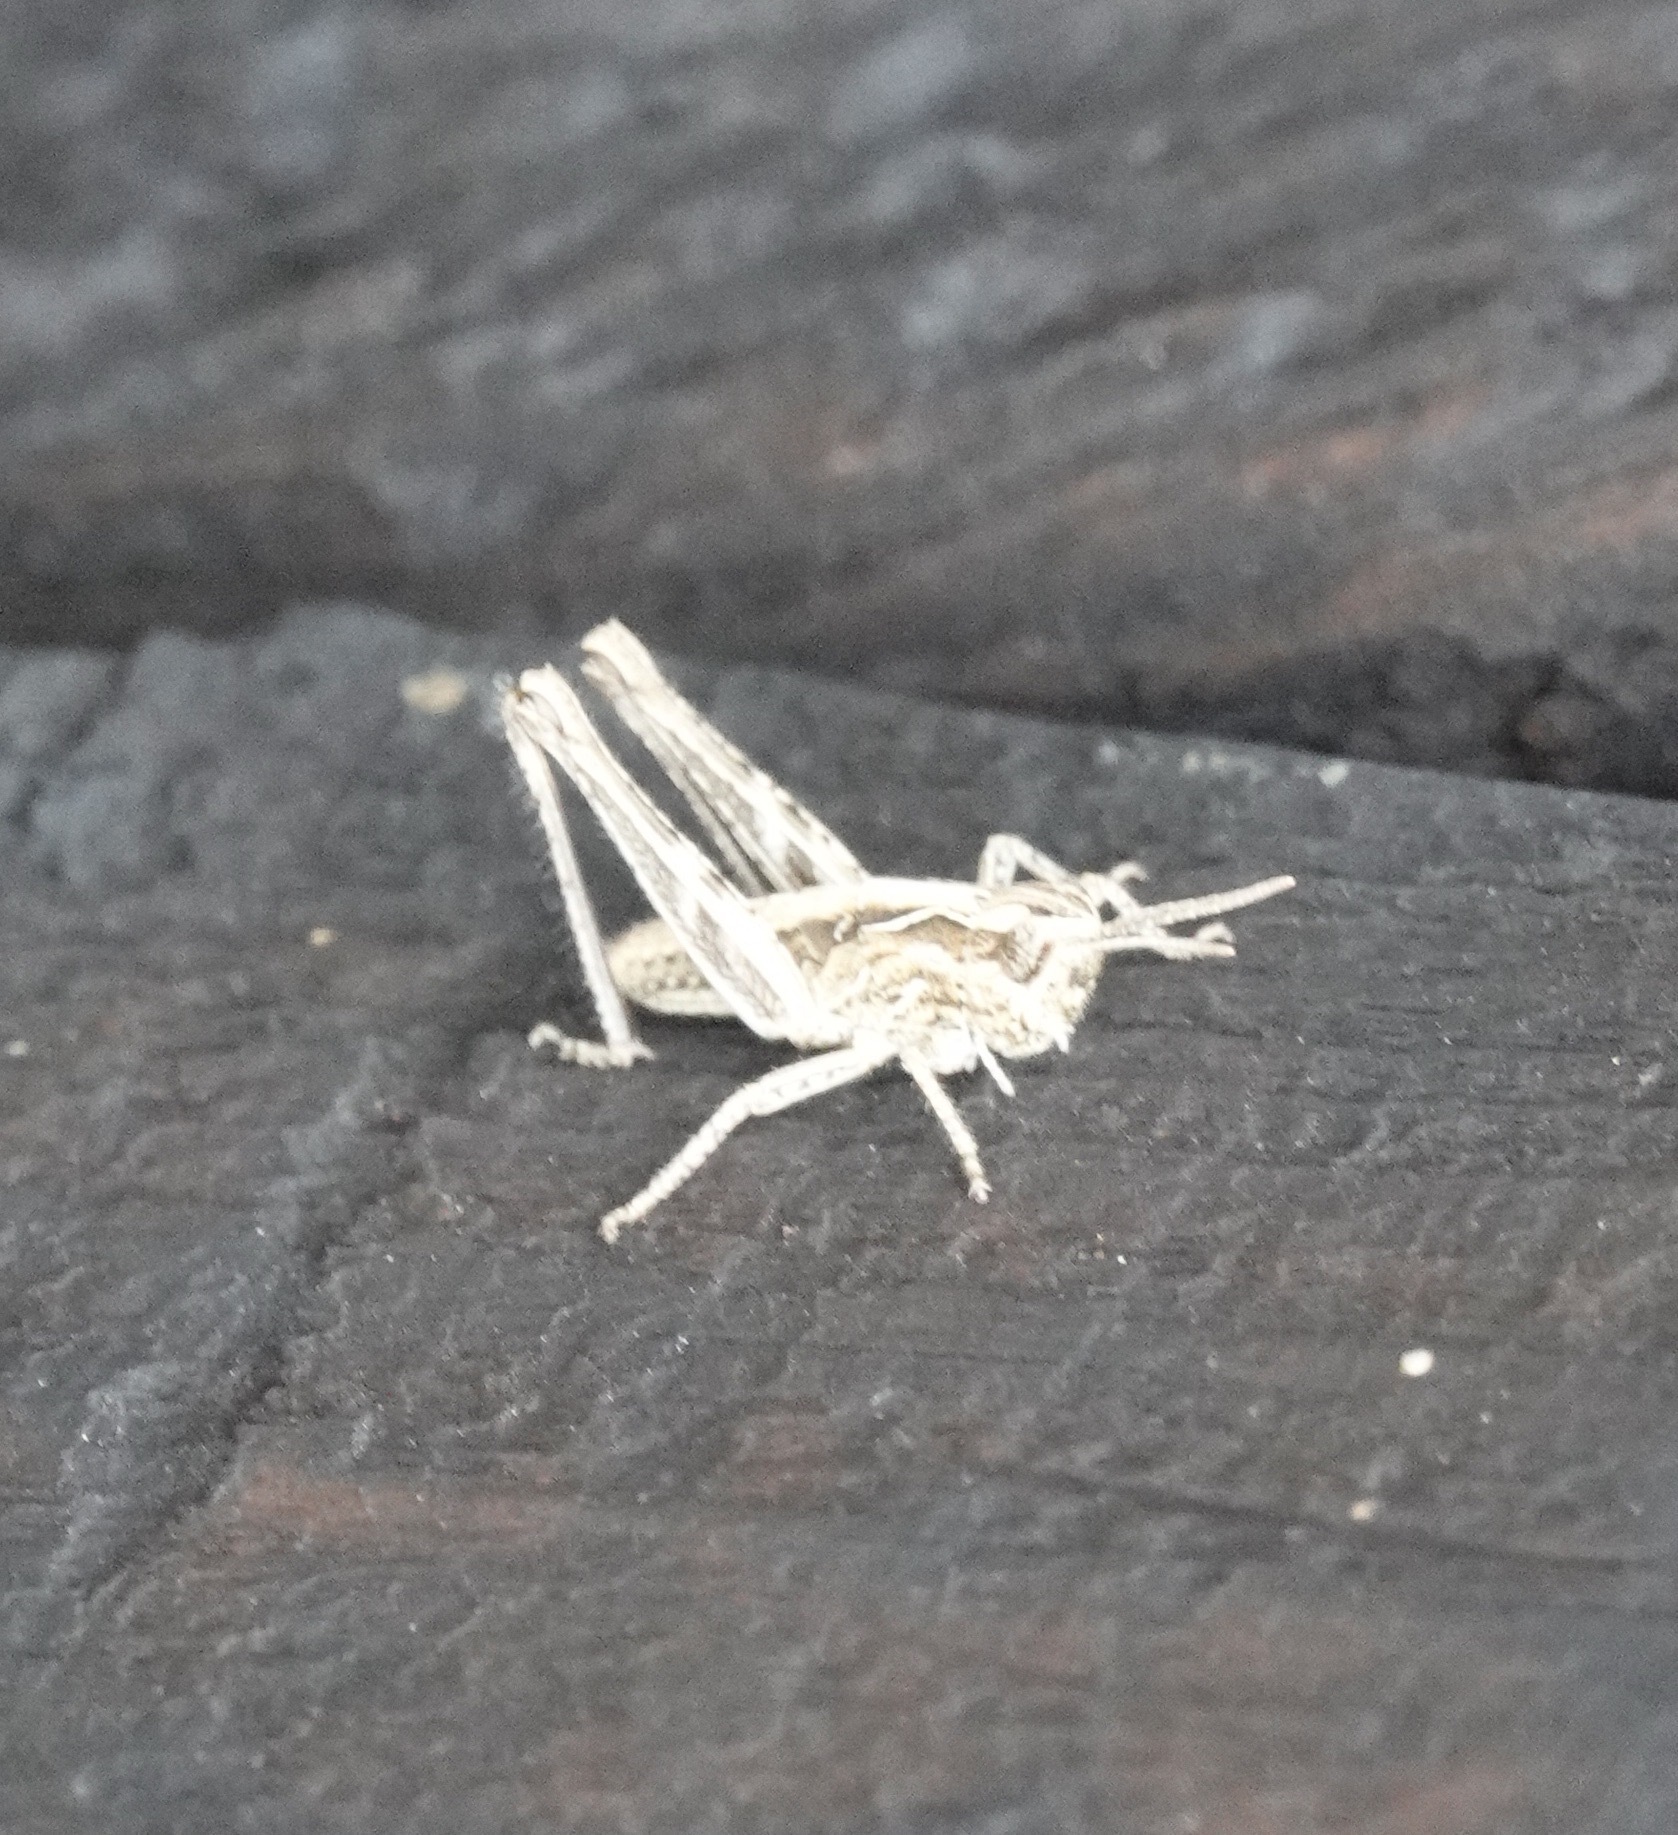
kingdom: Animalia
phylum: Arthropoda
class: Insecta
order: Orthoptera
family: Acrididae
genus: Chorthippus
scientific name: Chorthippus brunneus
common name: Field grasshopper
